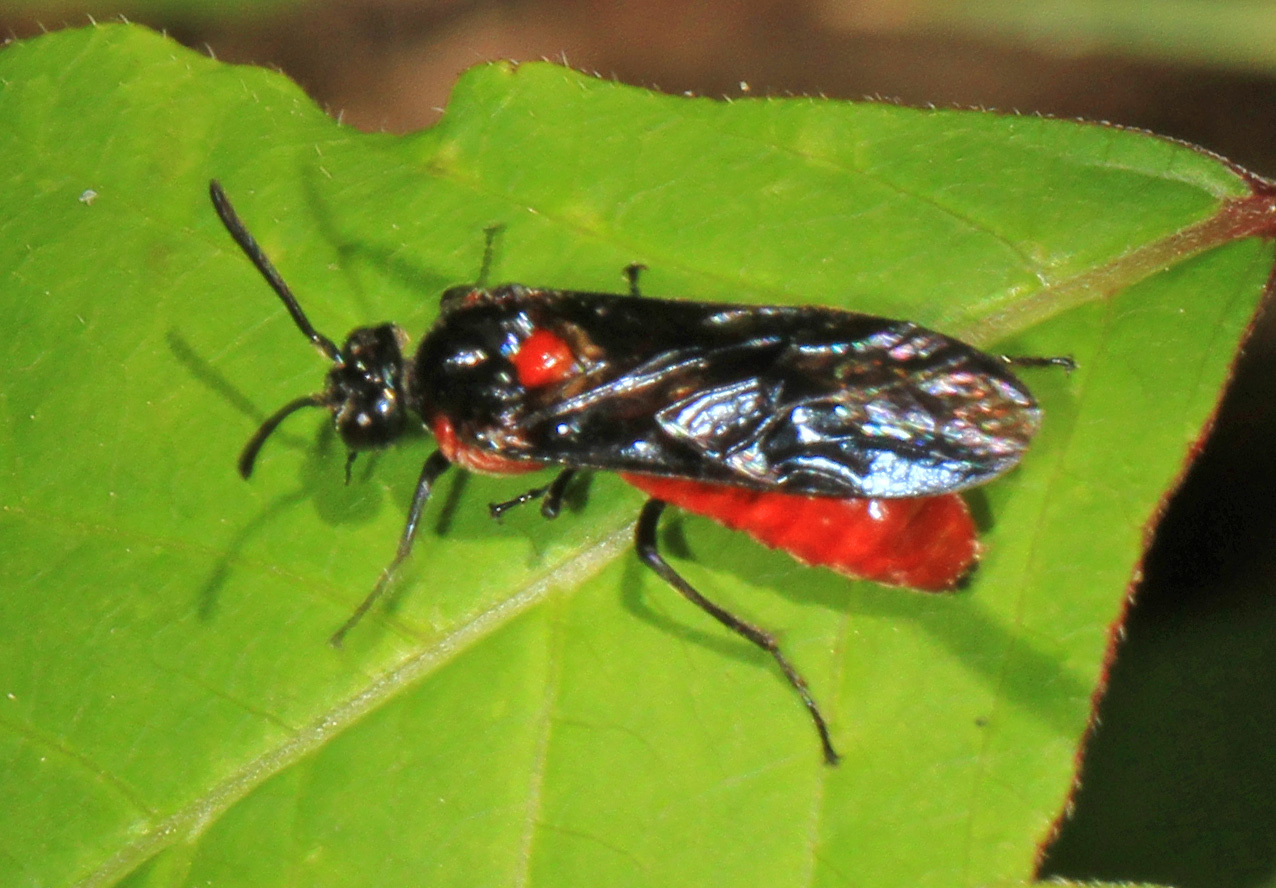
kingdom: Animalia
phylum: Arthropoda
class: Insecta
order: Hymenoptera
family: Argidae
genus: Arge
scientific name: Arge humeralis
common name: Poison ivy sawfly
